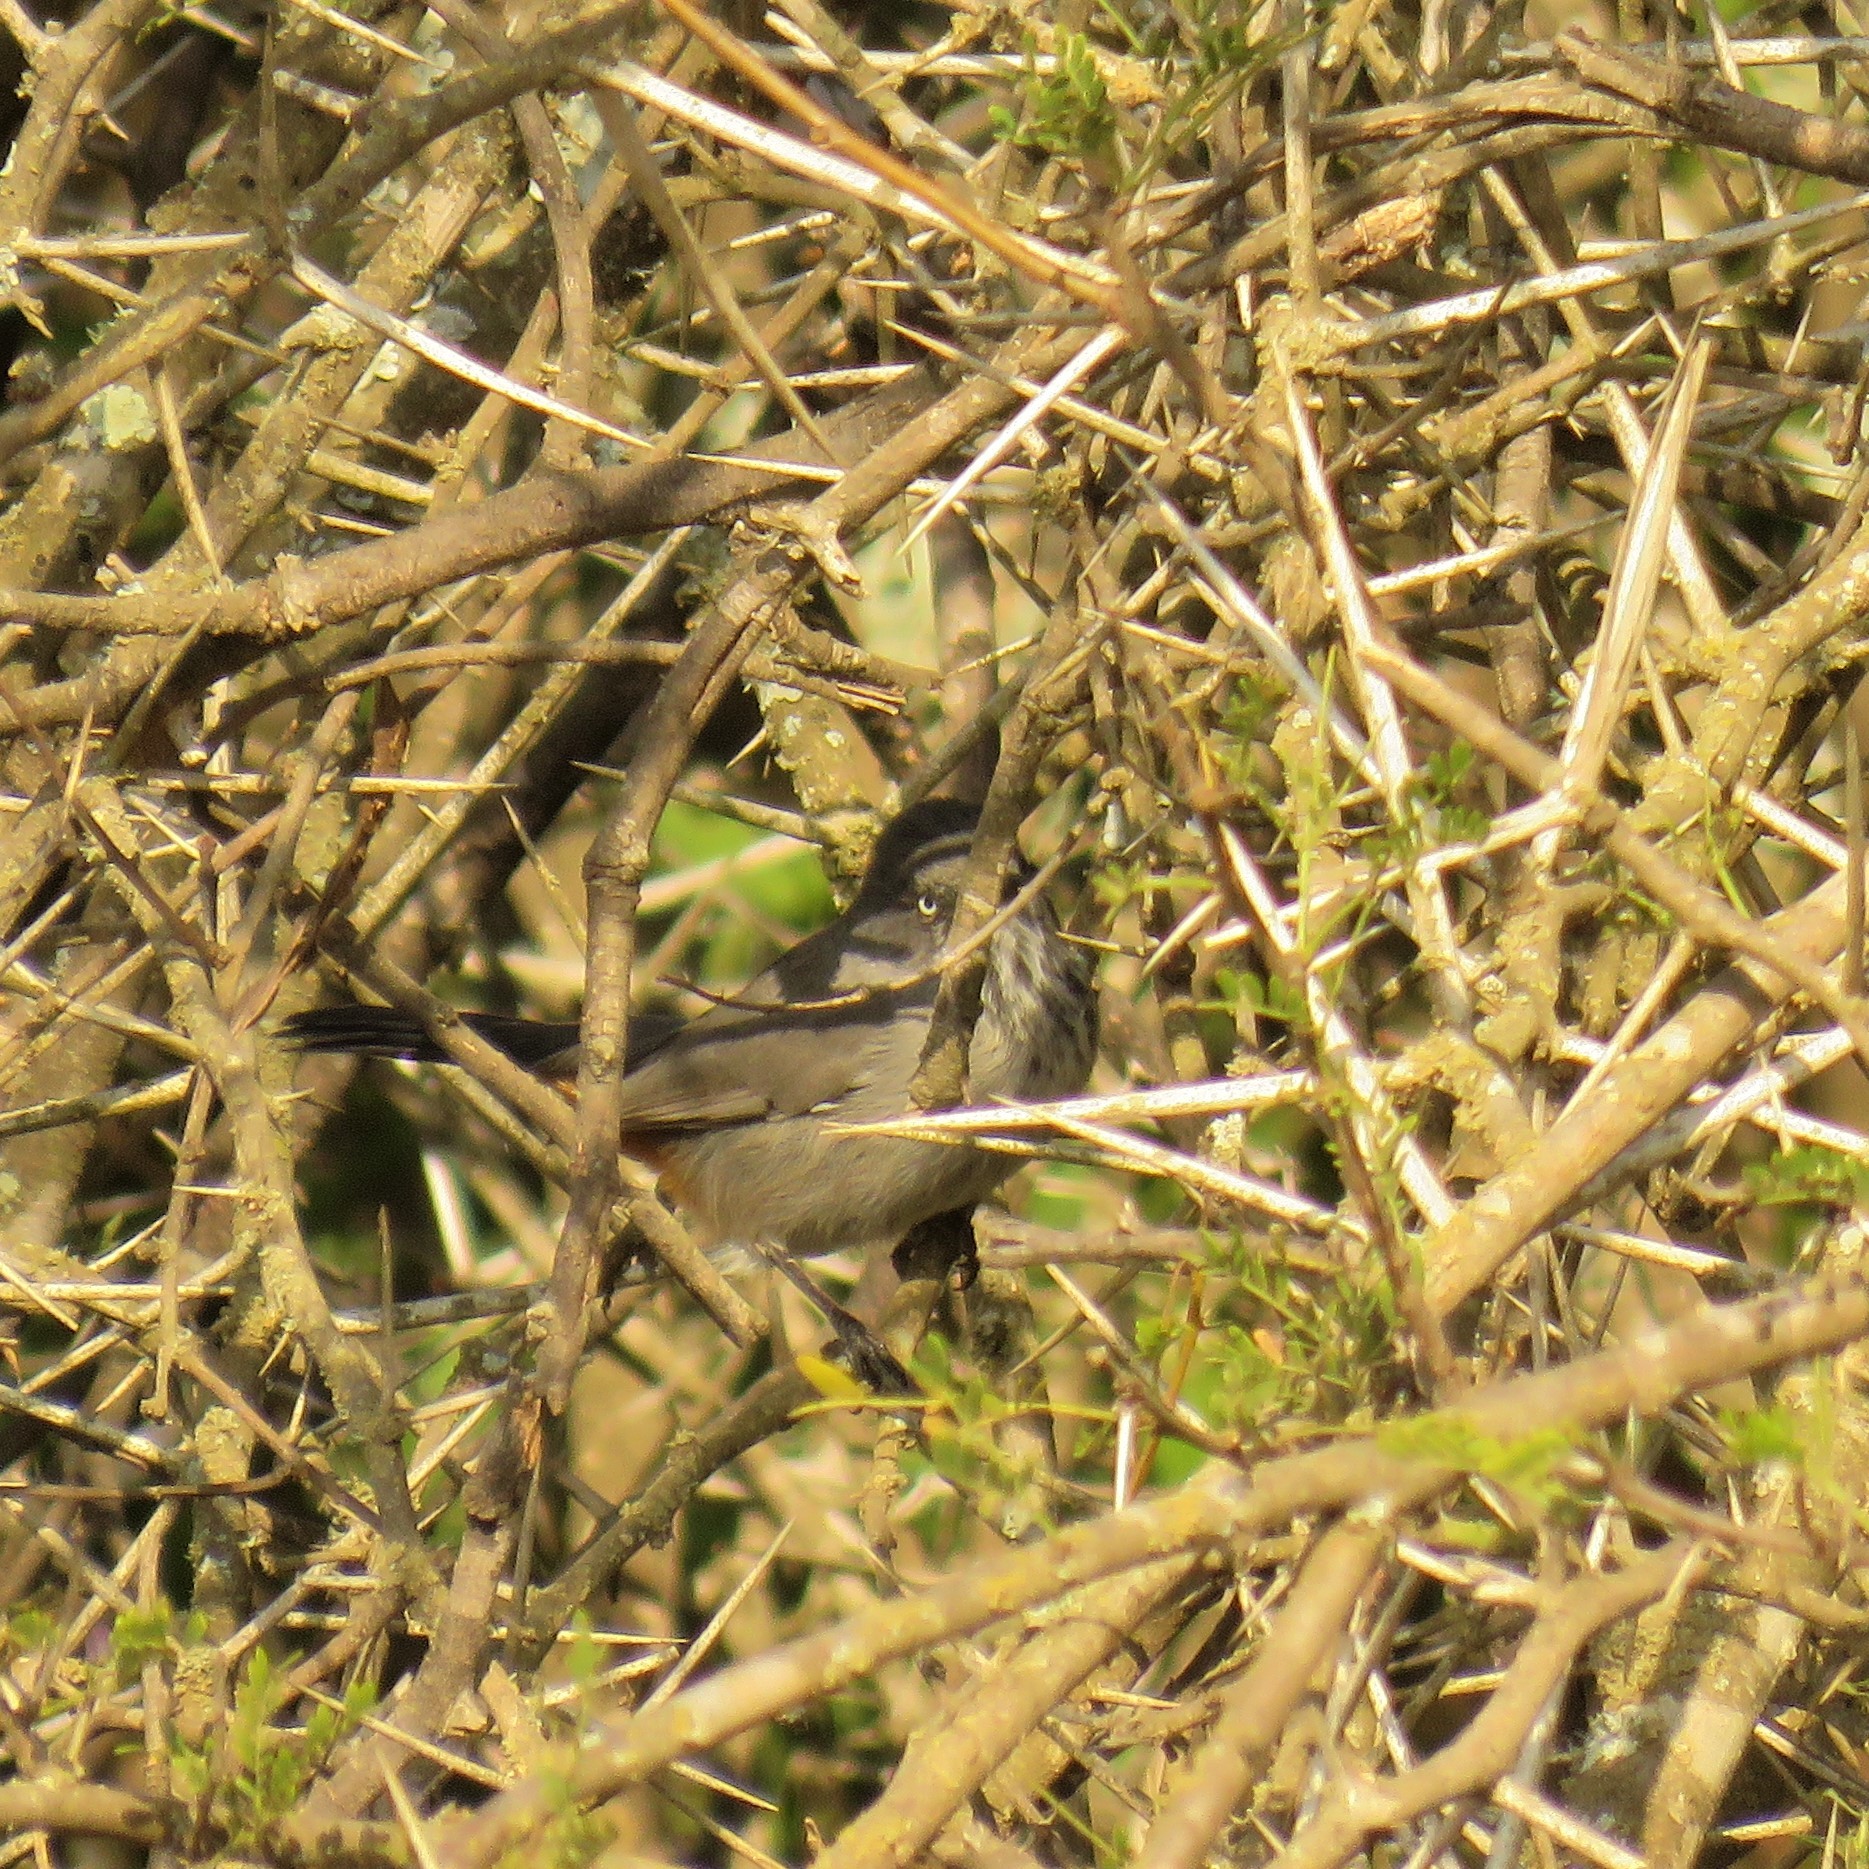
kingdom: Animalia
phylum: Chordata
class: Aves
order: Passeriformes
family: Sylviidae
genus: Curruca
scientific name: Curruca subcoerulea
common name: Chestnut-vented warbler
